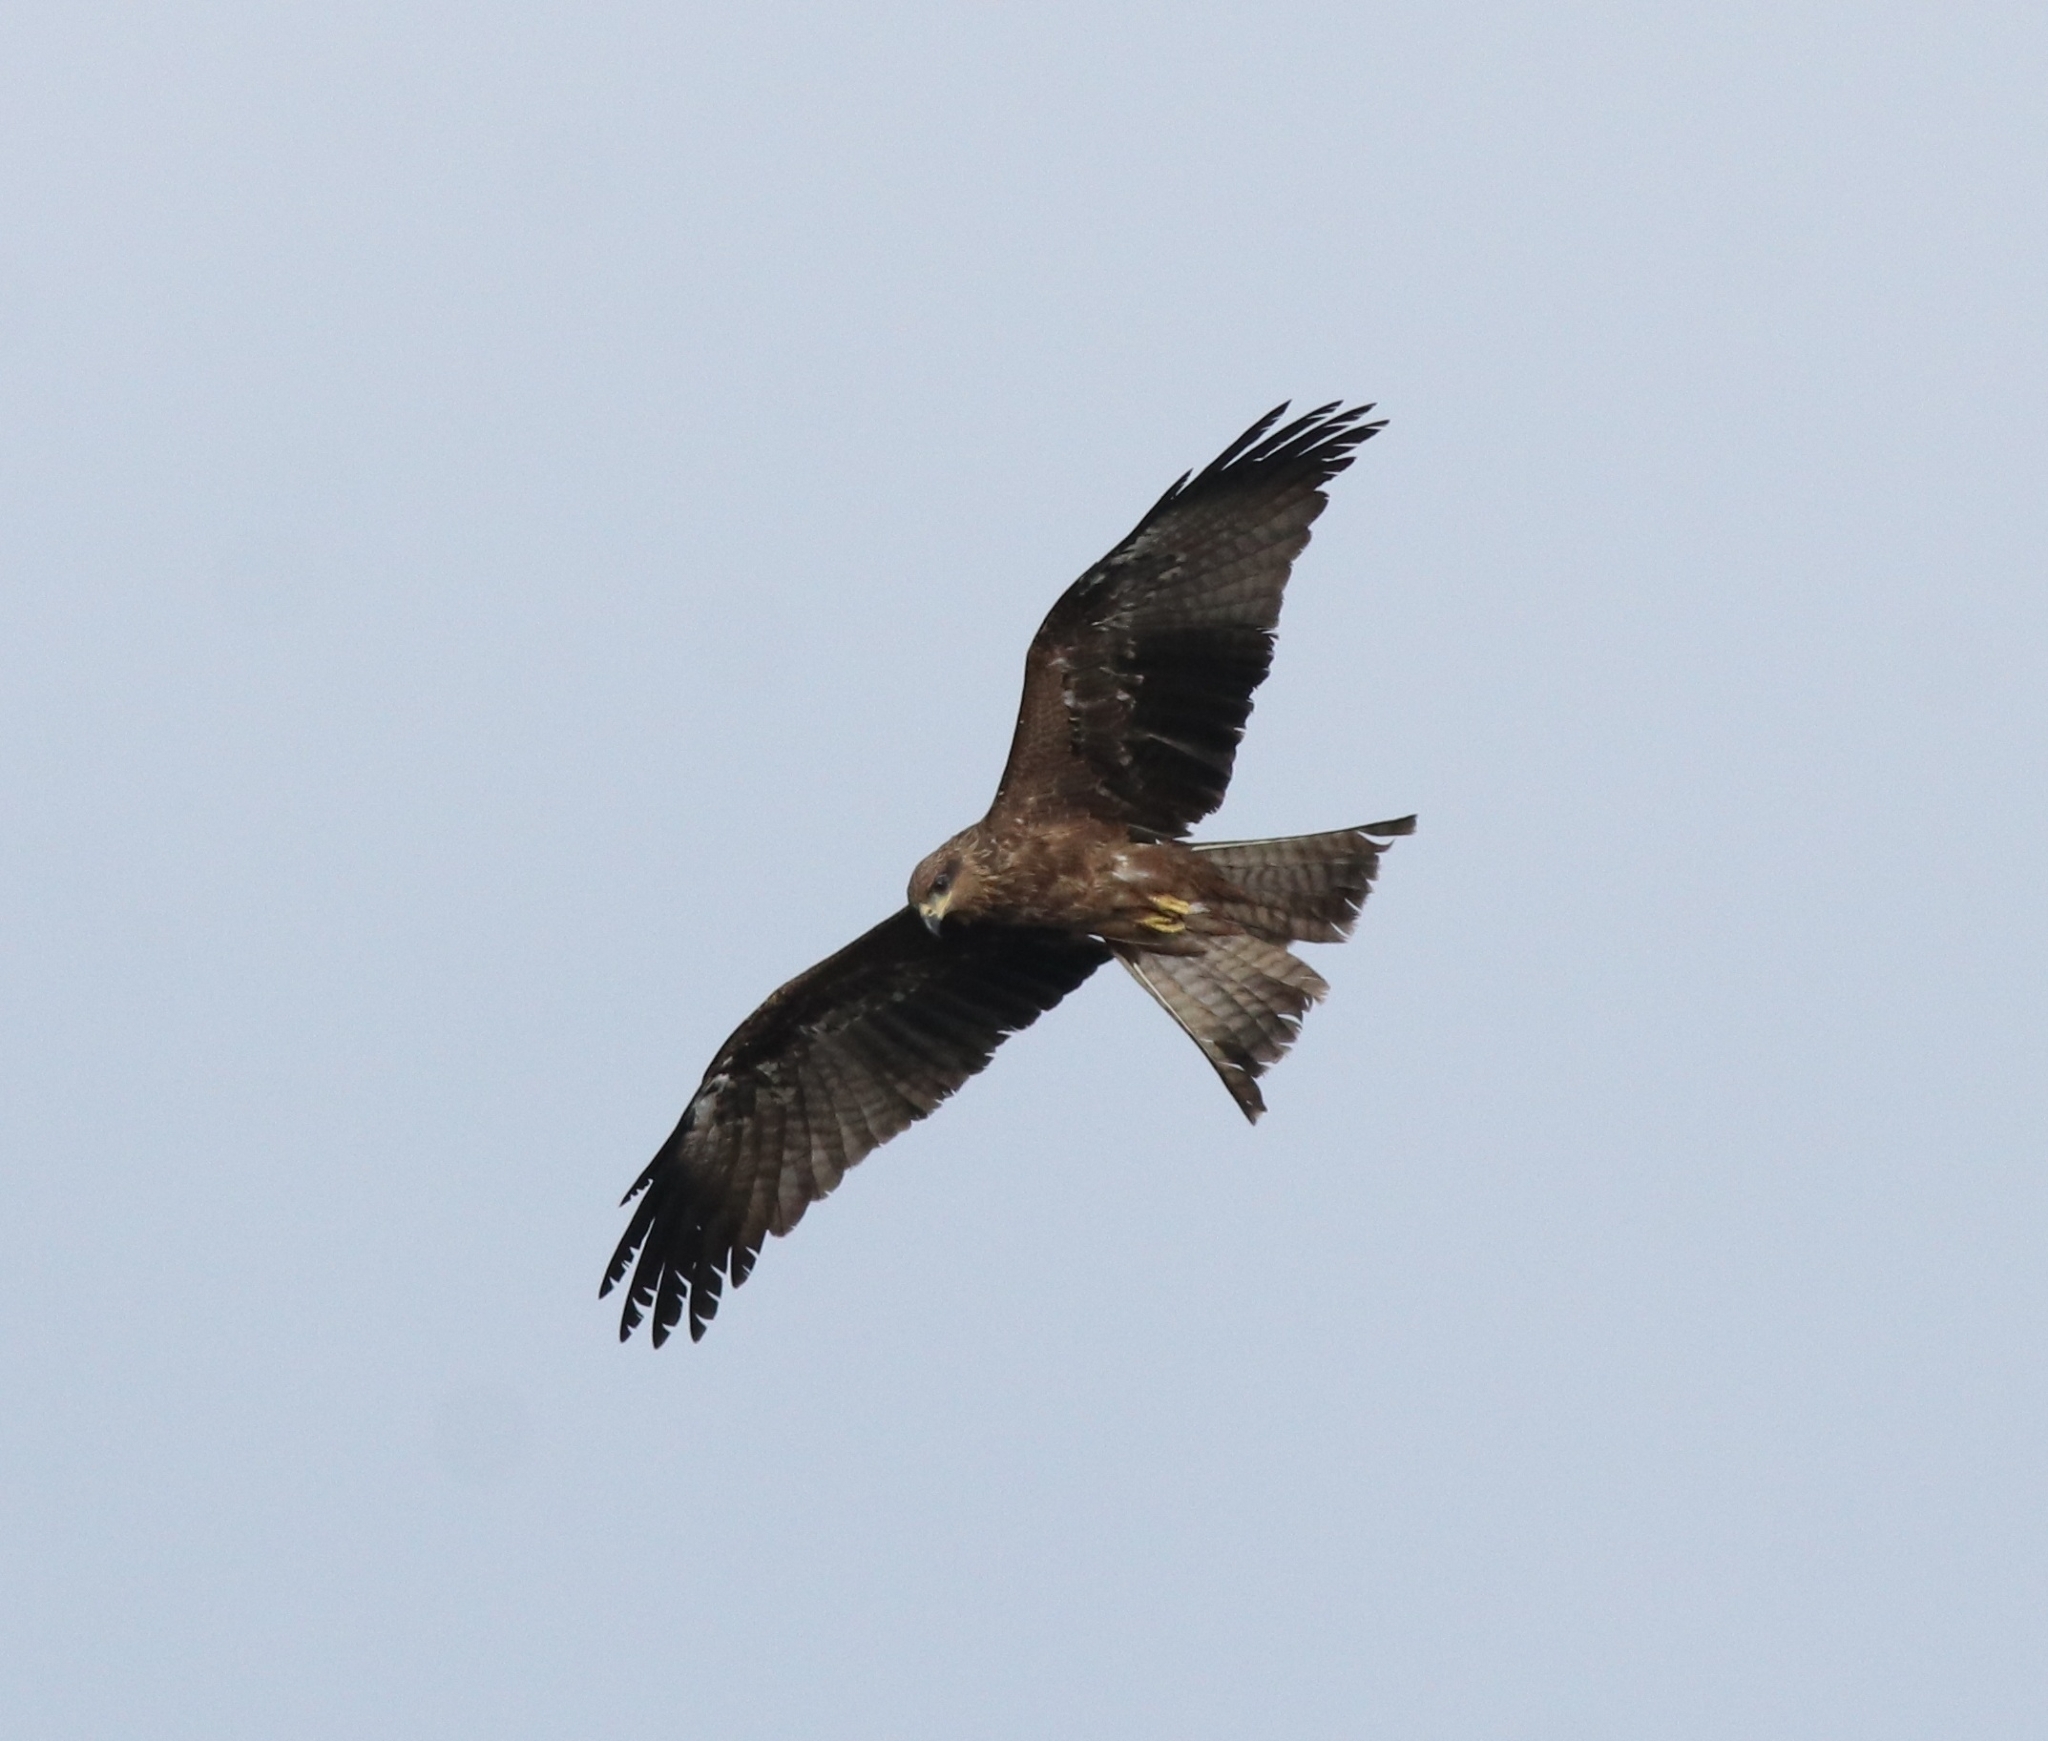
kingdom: Animalia
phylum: Chordata
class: Aves
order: Accipitriformes
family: Accipitridae
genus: Milvus
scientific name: Milvus migrans
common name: Black kite
